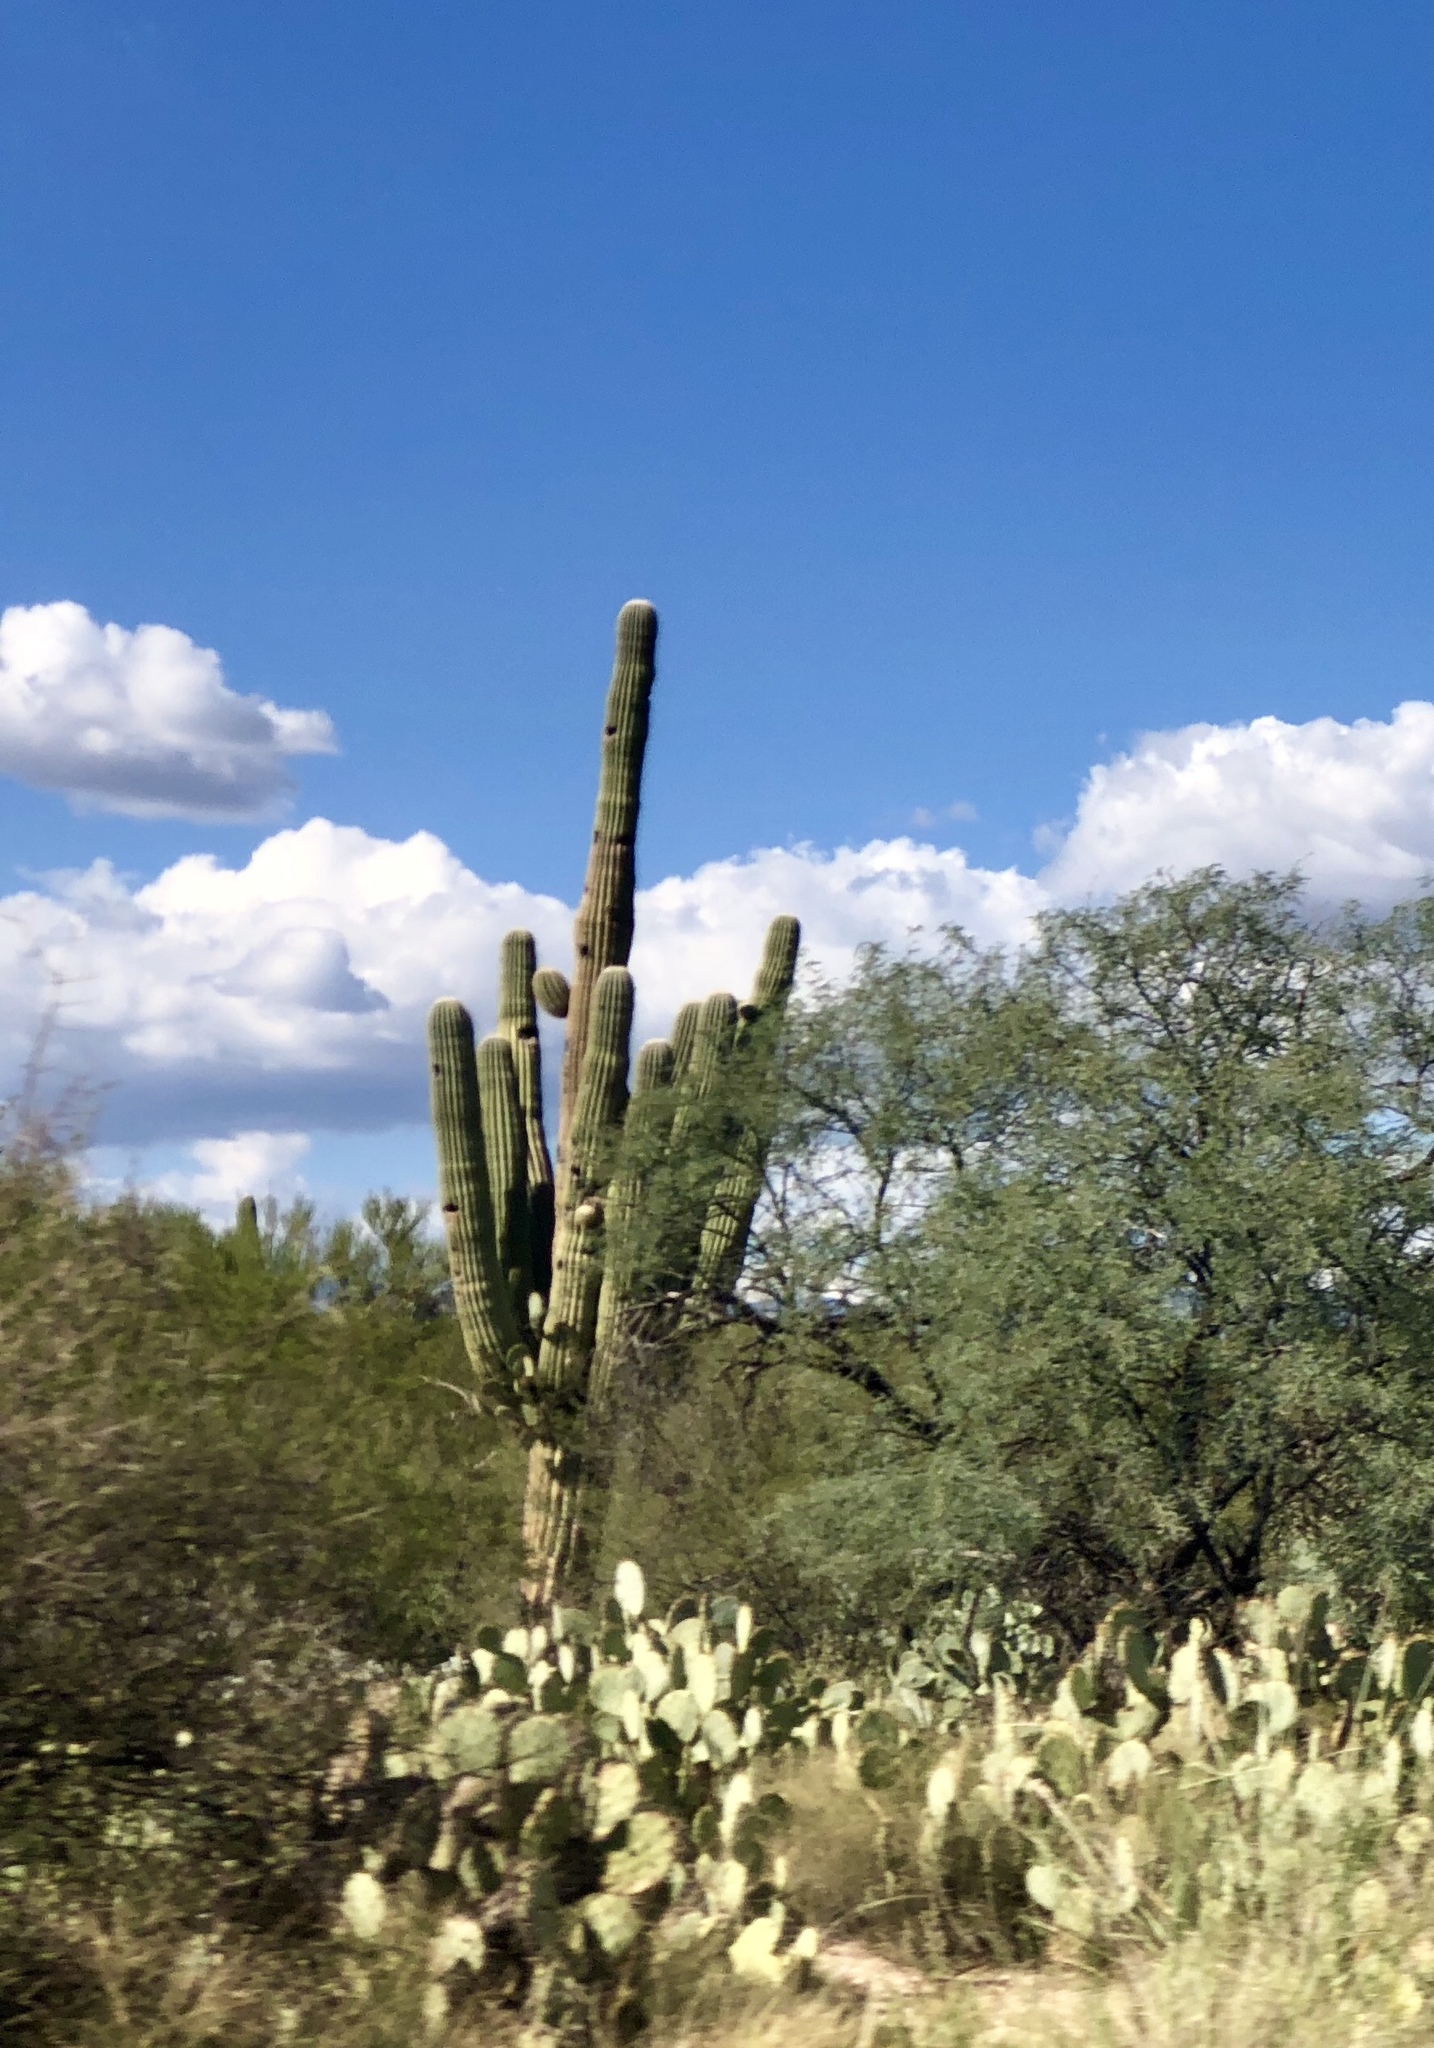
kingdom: Plantae
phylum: Tracheophyta
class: Magnoliopsida
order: Caryophyllales
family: Cactaceae
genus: Carnegiea
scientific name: Carnegiea gigantea
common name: Saguaro
